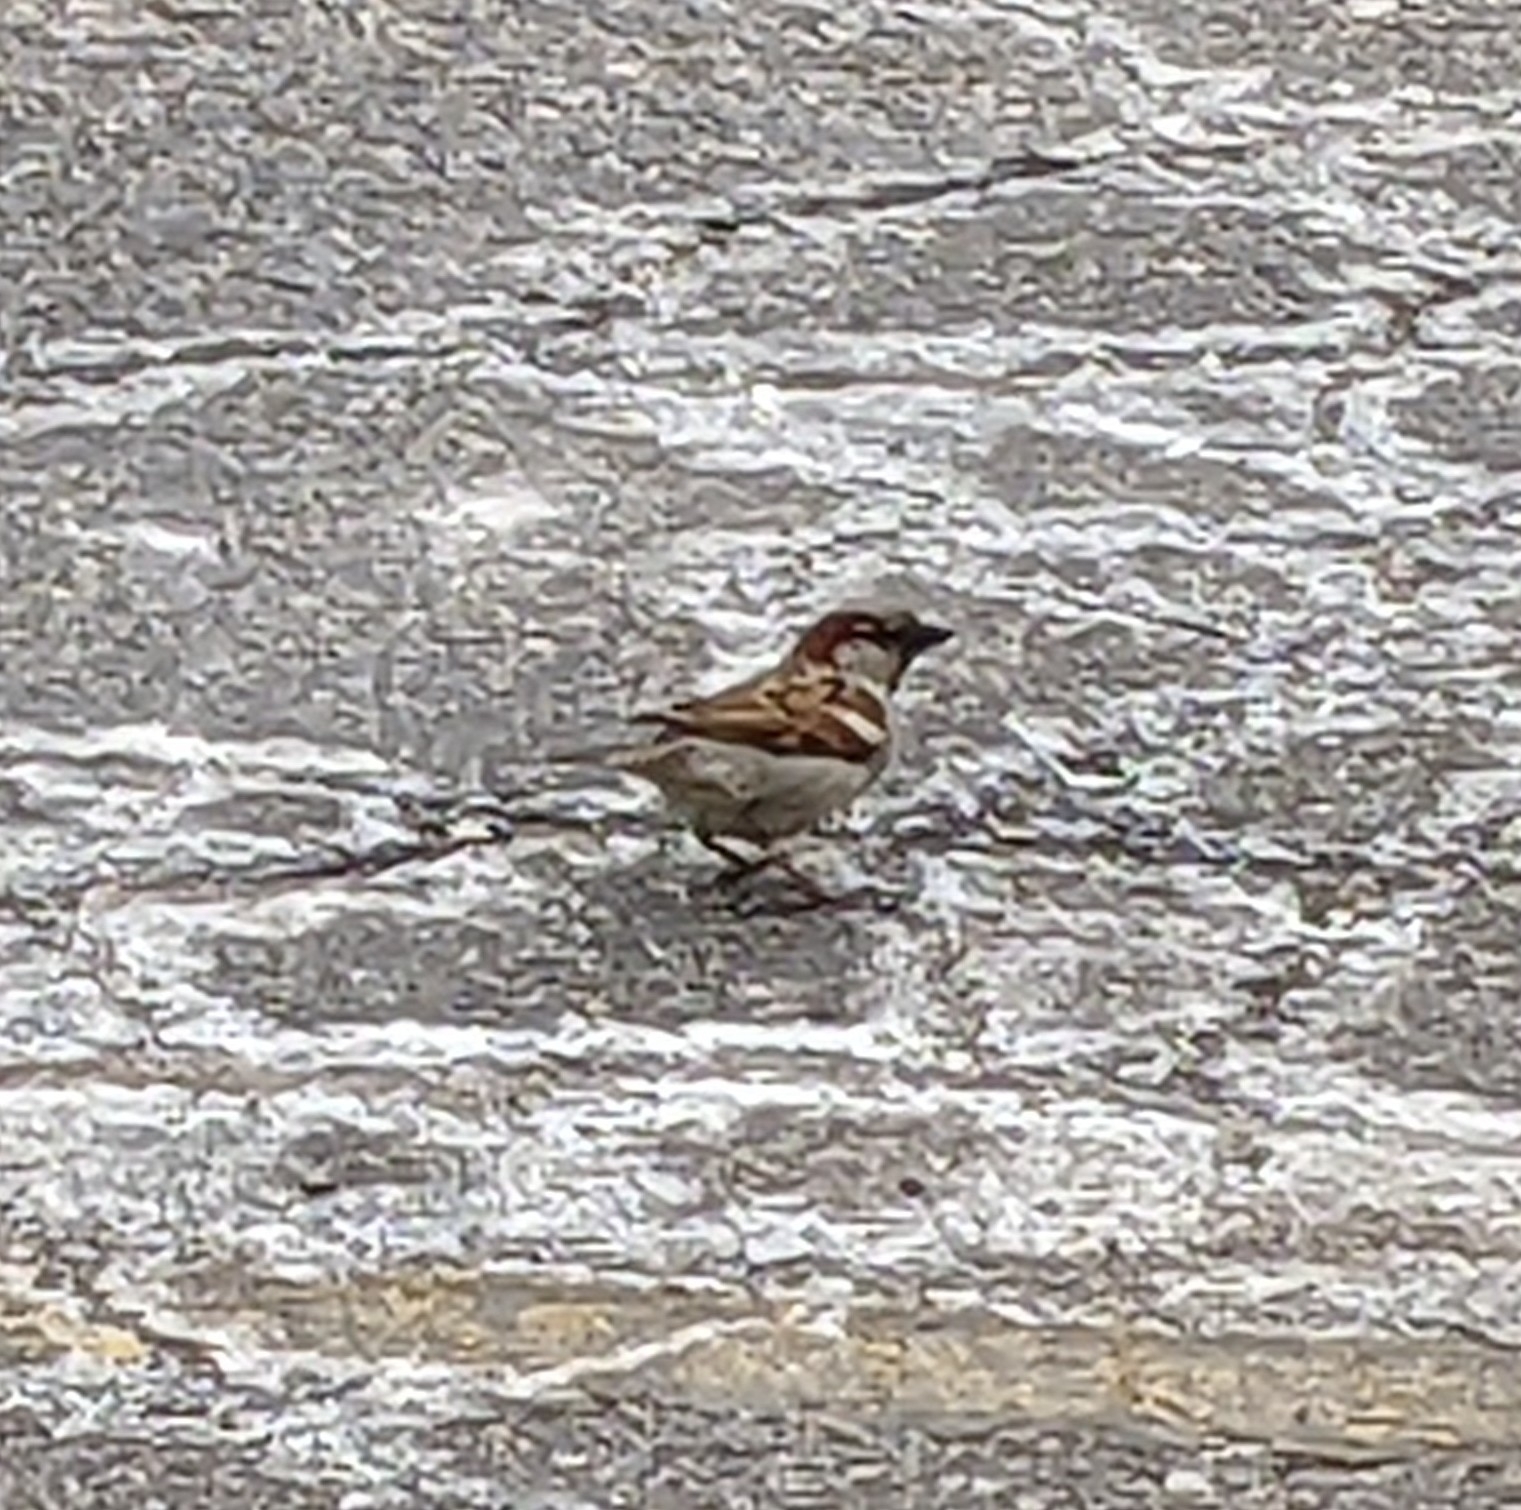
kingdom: Animalia
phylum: Chordata
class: Aves
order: Passeriformes
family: Passeridae
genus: Passer
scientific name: Passer domesticus
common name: House sparrow
